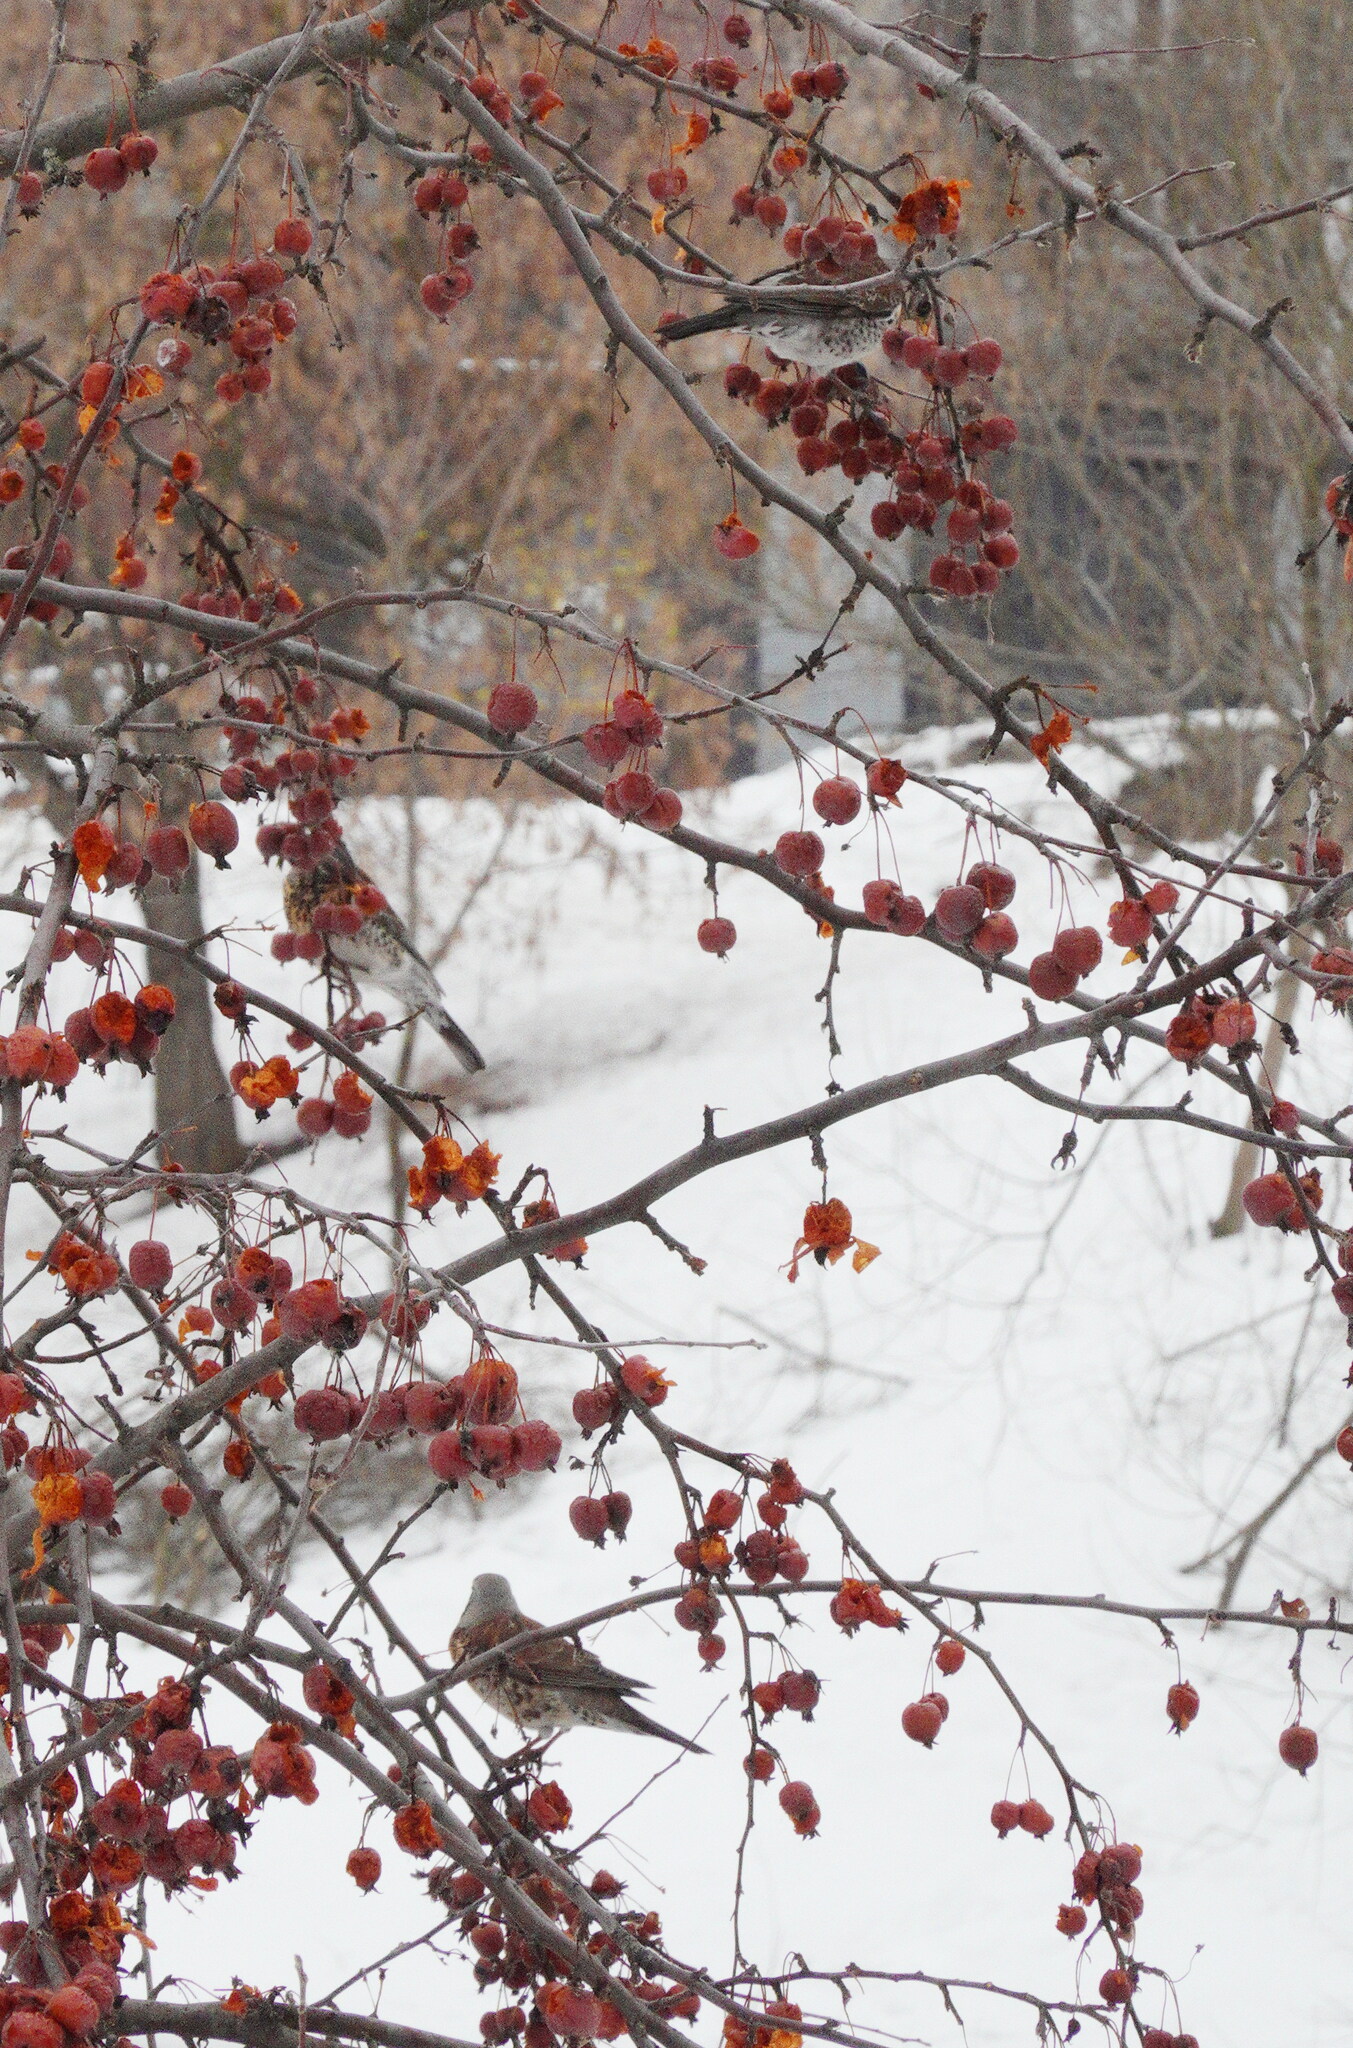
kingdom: Animalia
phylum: Chordata
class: Aves
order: Passeriformes
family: Turdidae
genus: Turdus
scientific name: Turdus pilaris
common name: Fieldfare
